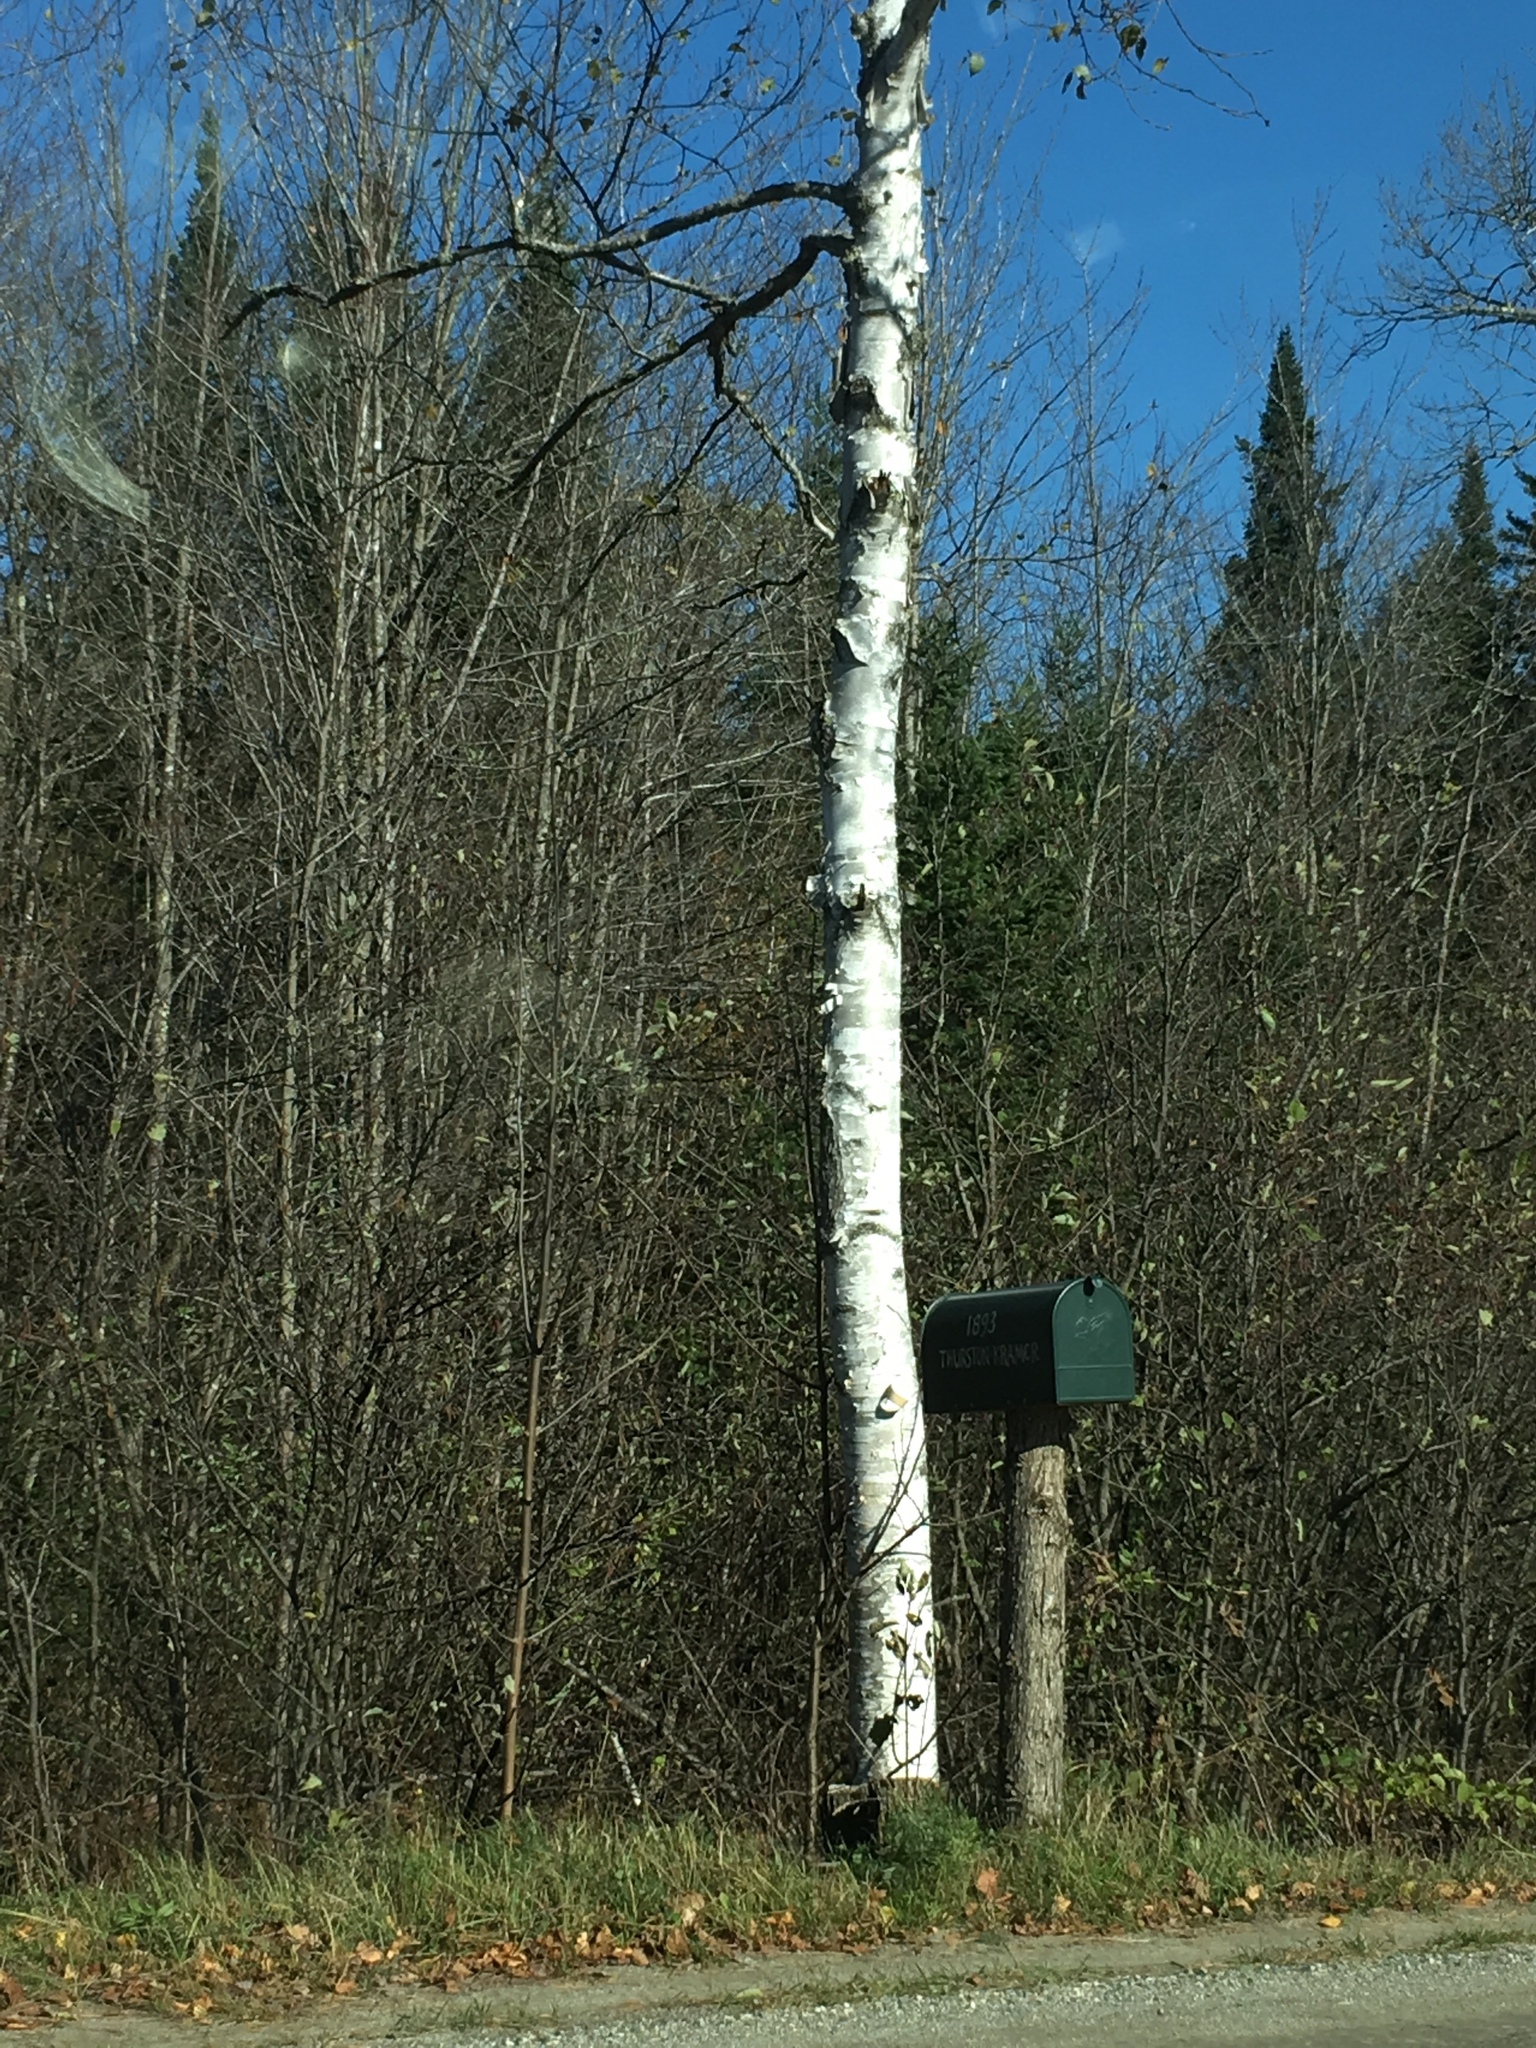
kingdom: Plantae
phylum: Tracheophyta
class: Magnoliopsida
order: Fagales
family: Betulaceae
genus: Betula
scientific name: Betula papyrifera
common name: Paper birch
